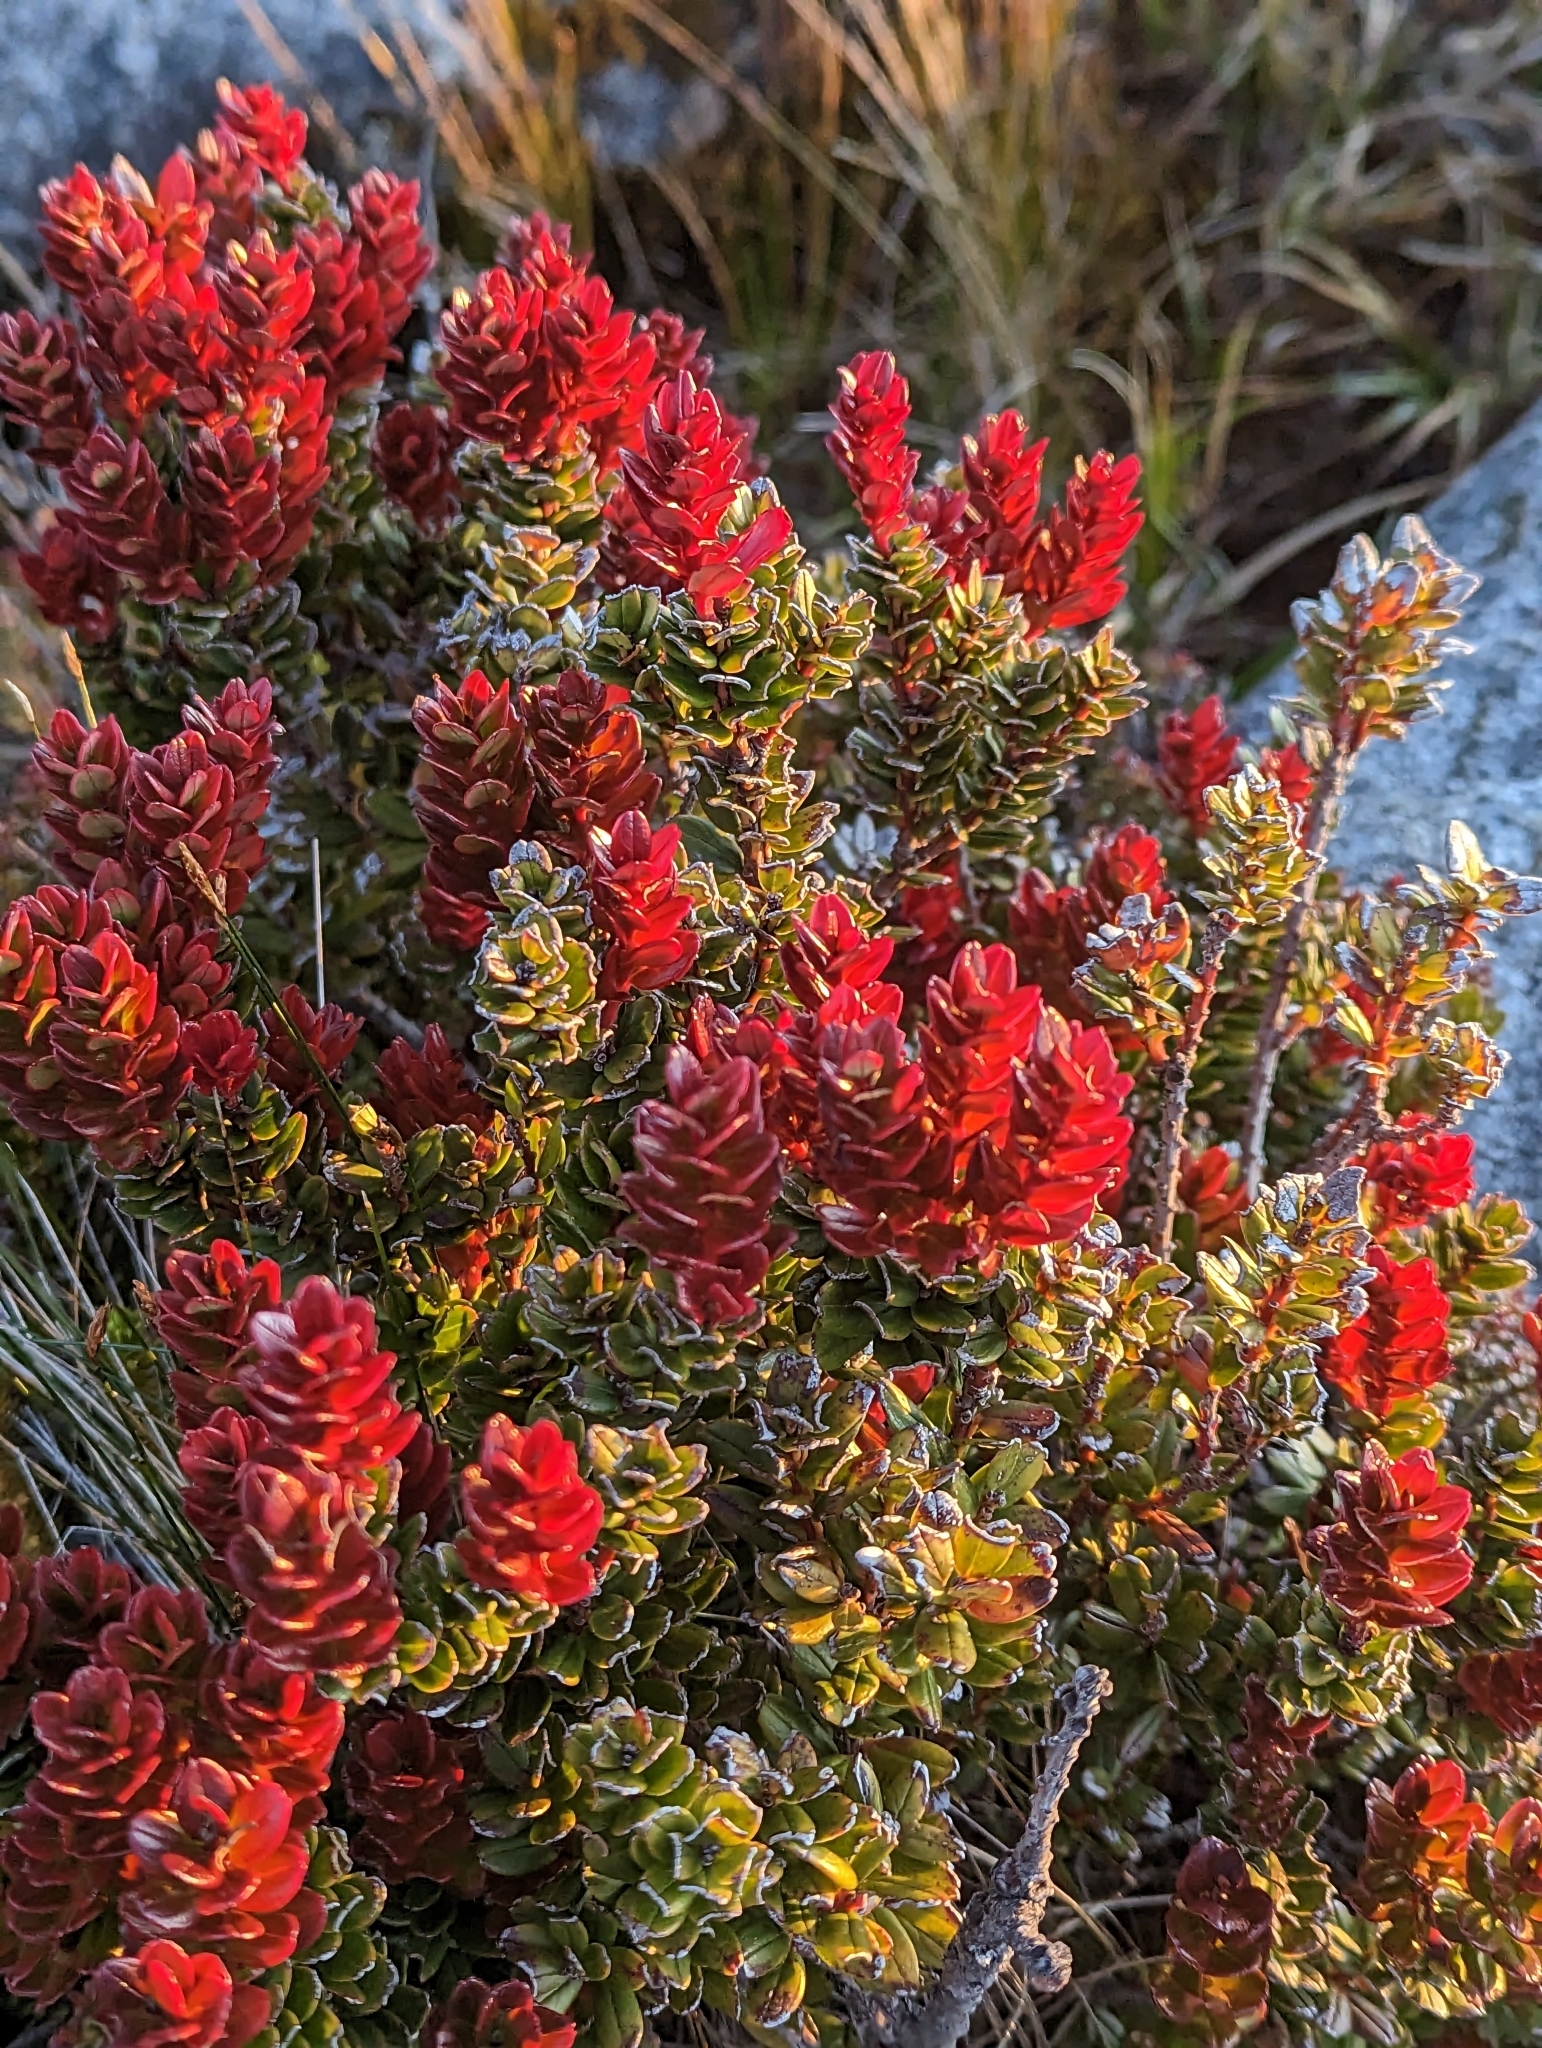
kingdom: Plantae
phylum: Tracheophyta
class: Magnoliopsida
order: Ericales
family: Ericaceae
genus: Vaccinium
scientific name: Vaccinium coriaceum
